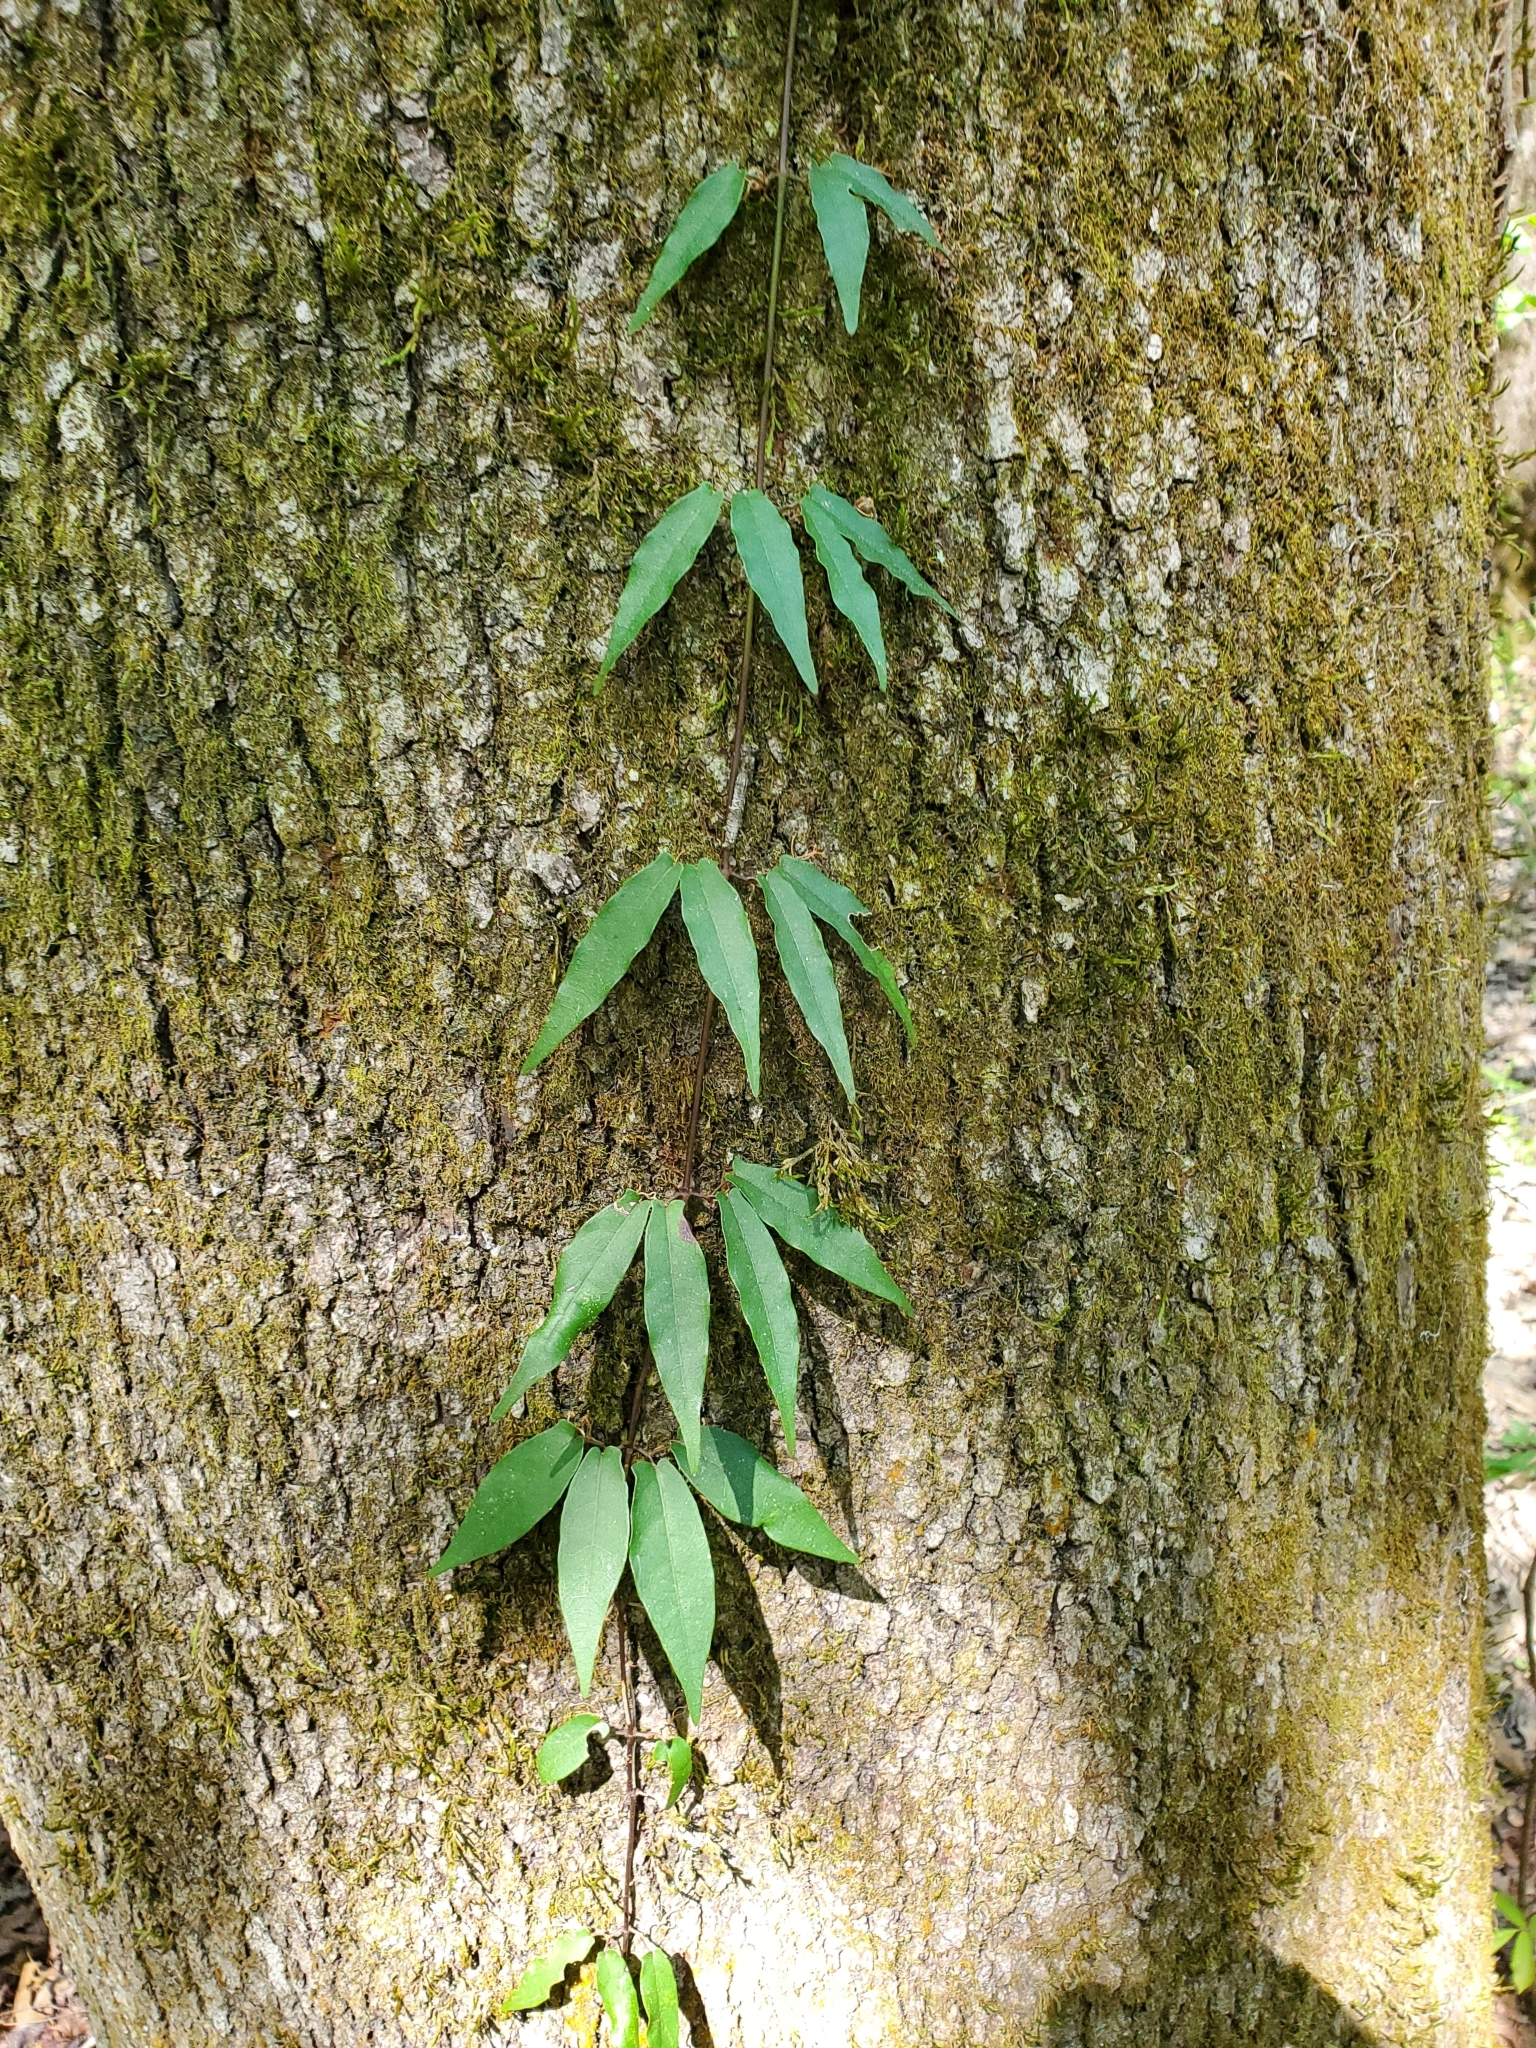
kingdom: Plantae
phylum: Tracheophyta
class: Magnoliopsida
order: Lamiales
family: Bignoniaceae
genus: Bignonia
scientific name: Bignonia capreolata
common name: Crossvine
